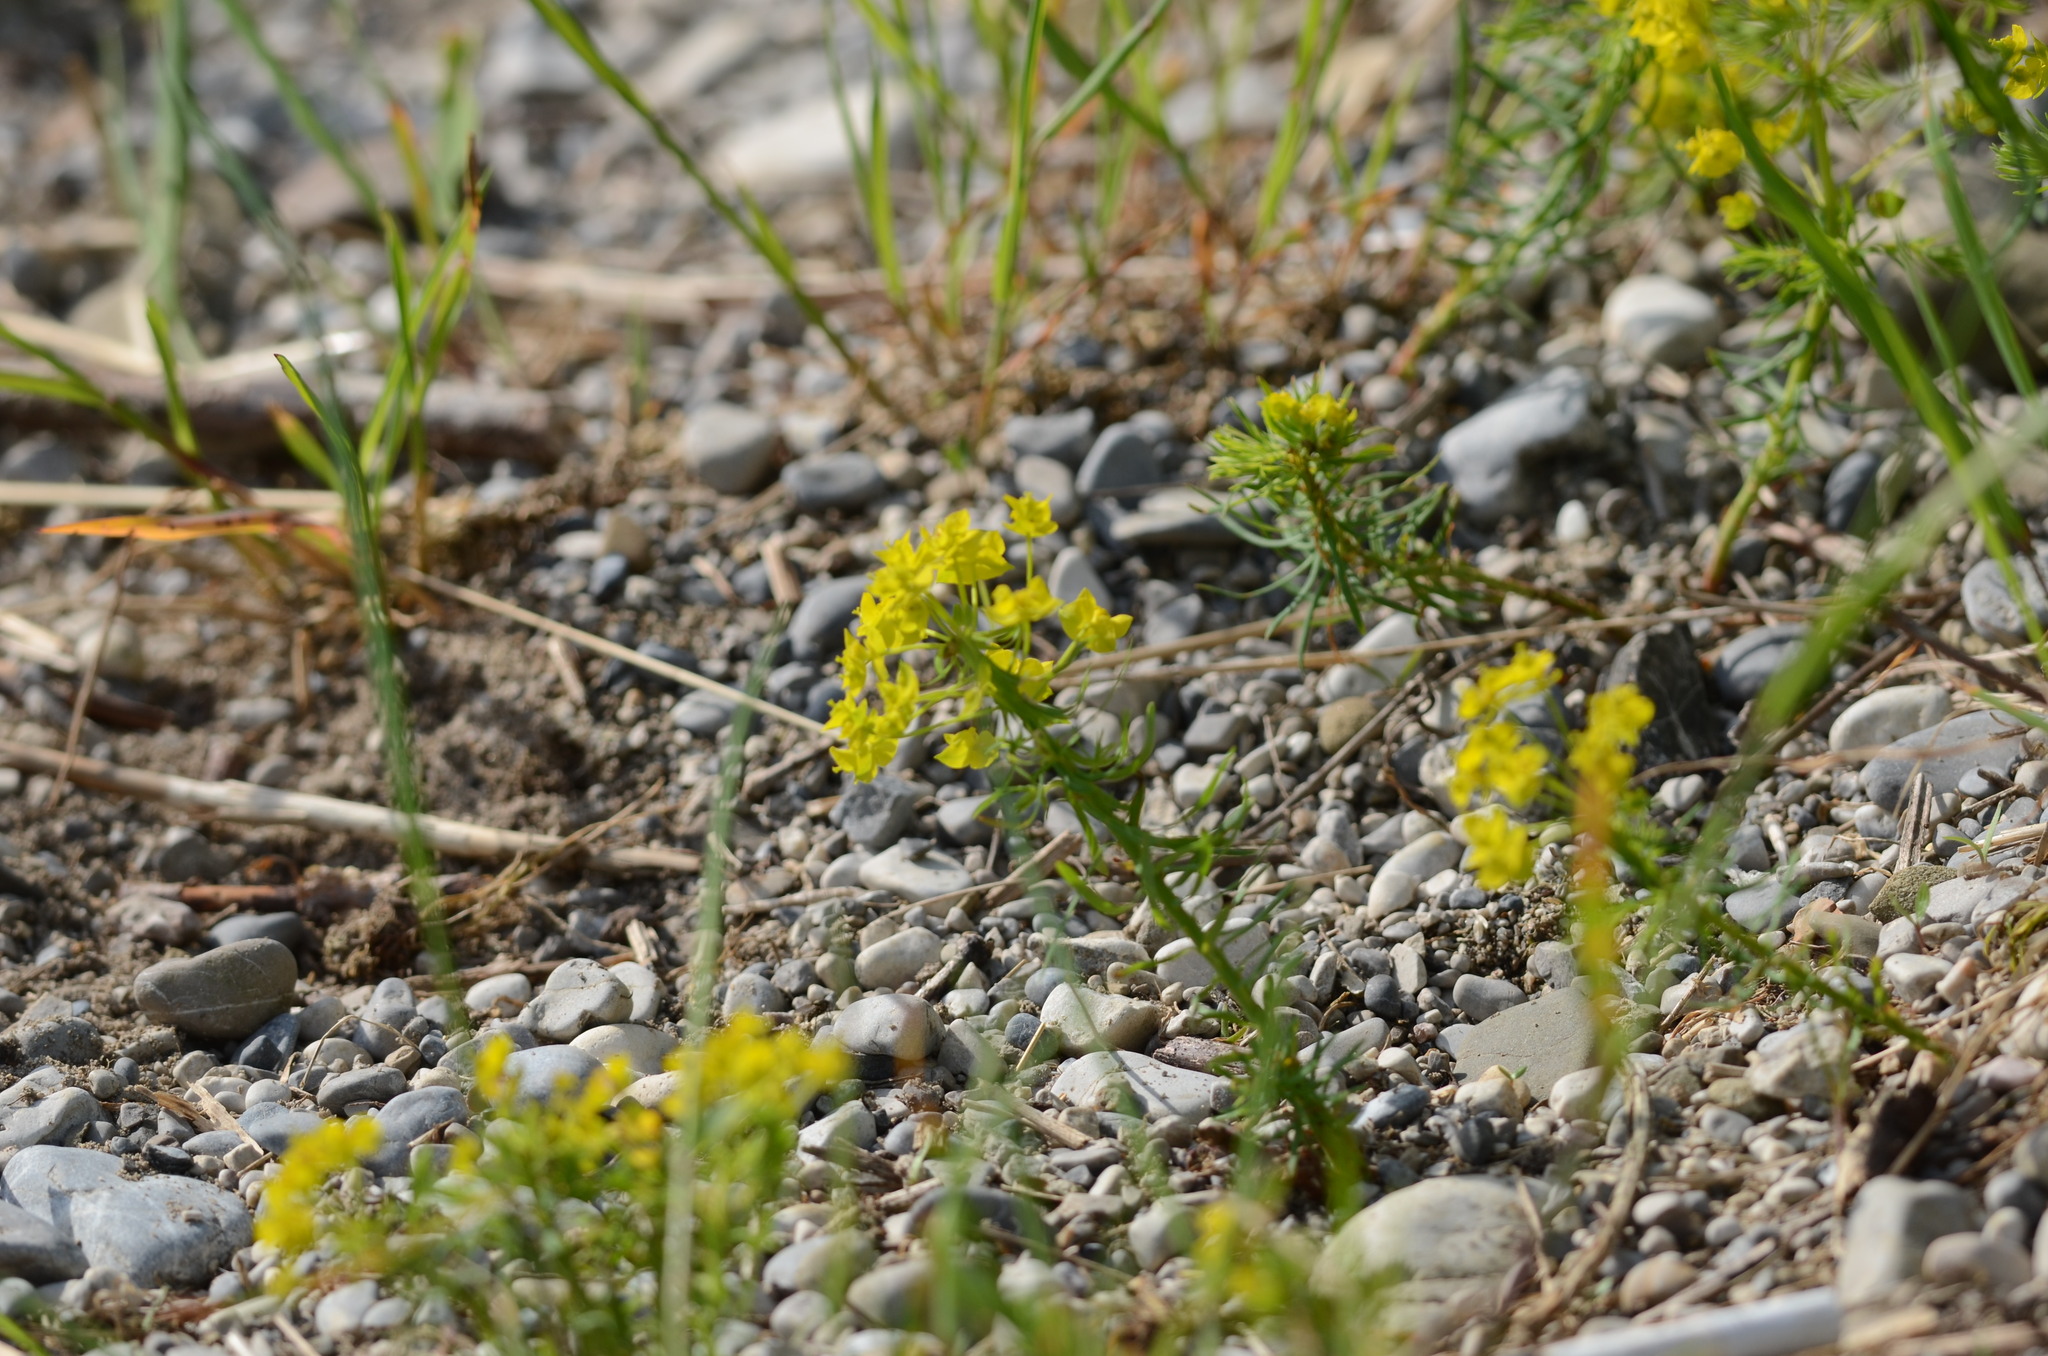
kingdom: Plantae
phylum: Tracheophyta
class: Magnoliopsida
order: Malpighiales
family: Euphorbiaceae
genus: Euphorbia
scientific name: Euphorbia cyparissias
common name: Cypress spurge
